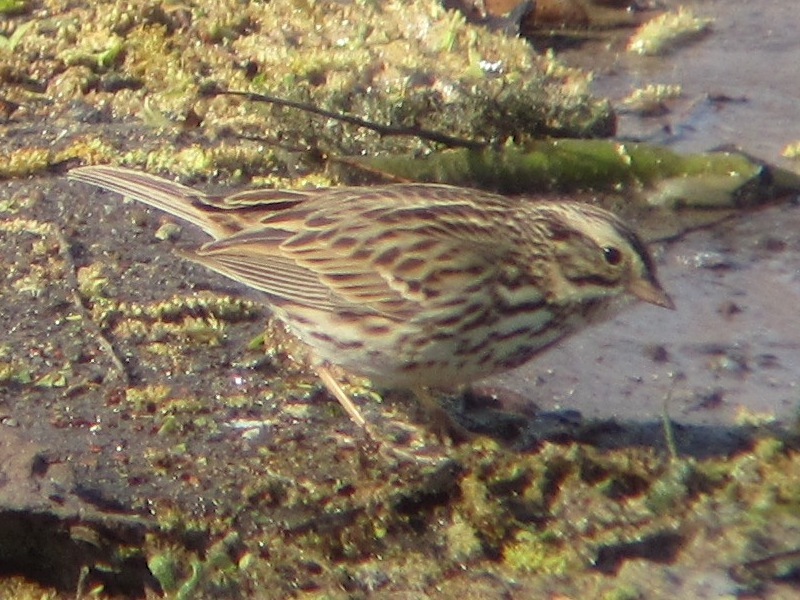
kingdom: Animalia
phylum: Chordata
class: Aves
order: Passeriformes
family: Passerellidae
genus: Passerculus
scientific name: Passerculus sandwichensis
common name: Savannah sparrow
